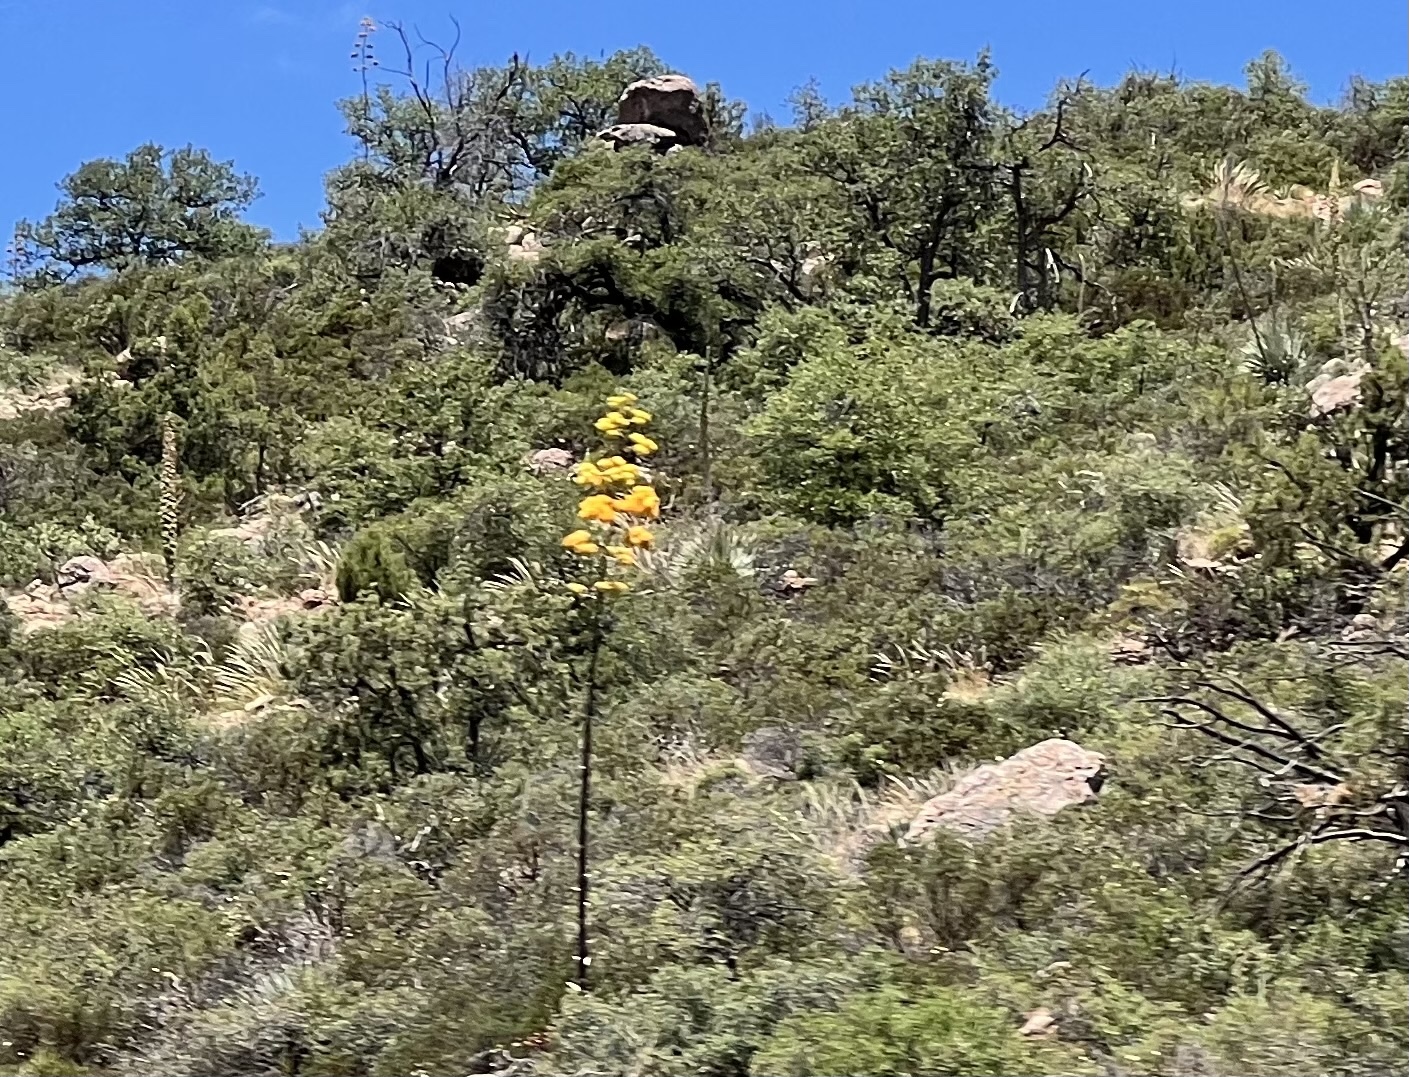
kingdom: Plantae
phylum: Tracheophyta
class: Liliopsida
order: Asparagales
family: Asparagaceae
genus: Agave
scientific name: Agave chrysantha
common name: Golden-flowered agave
